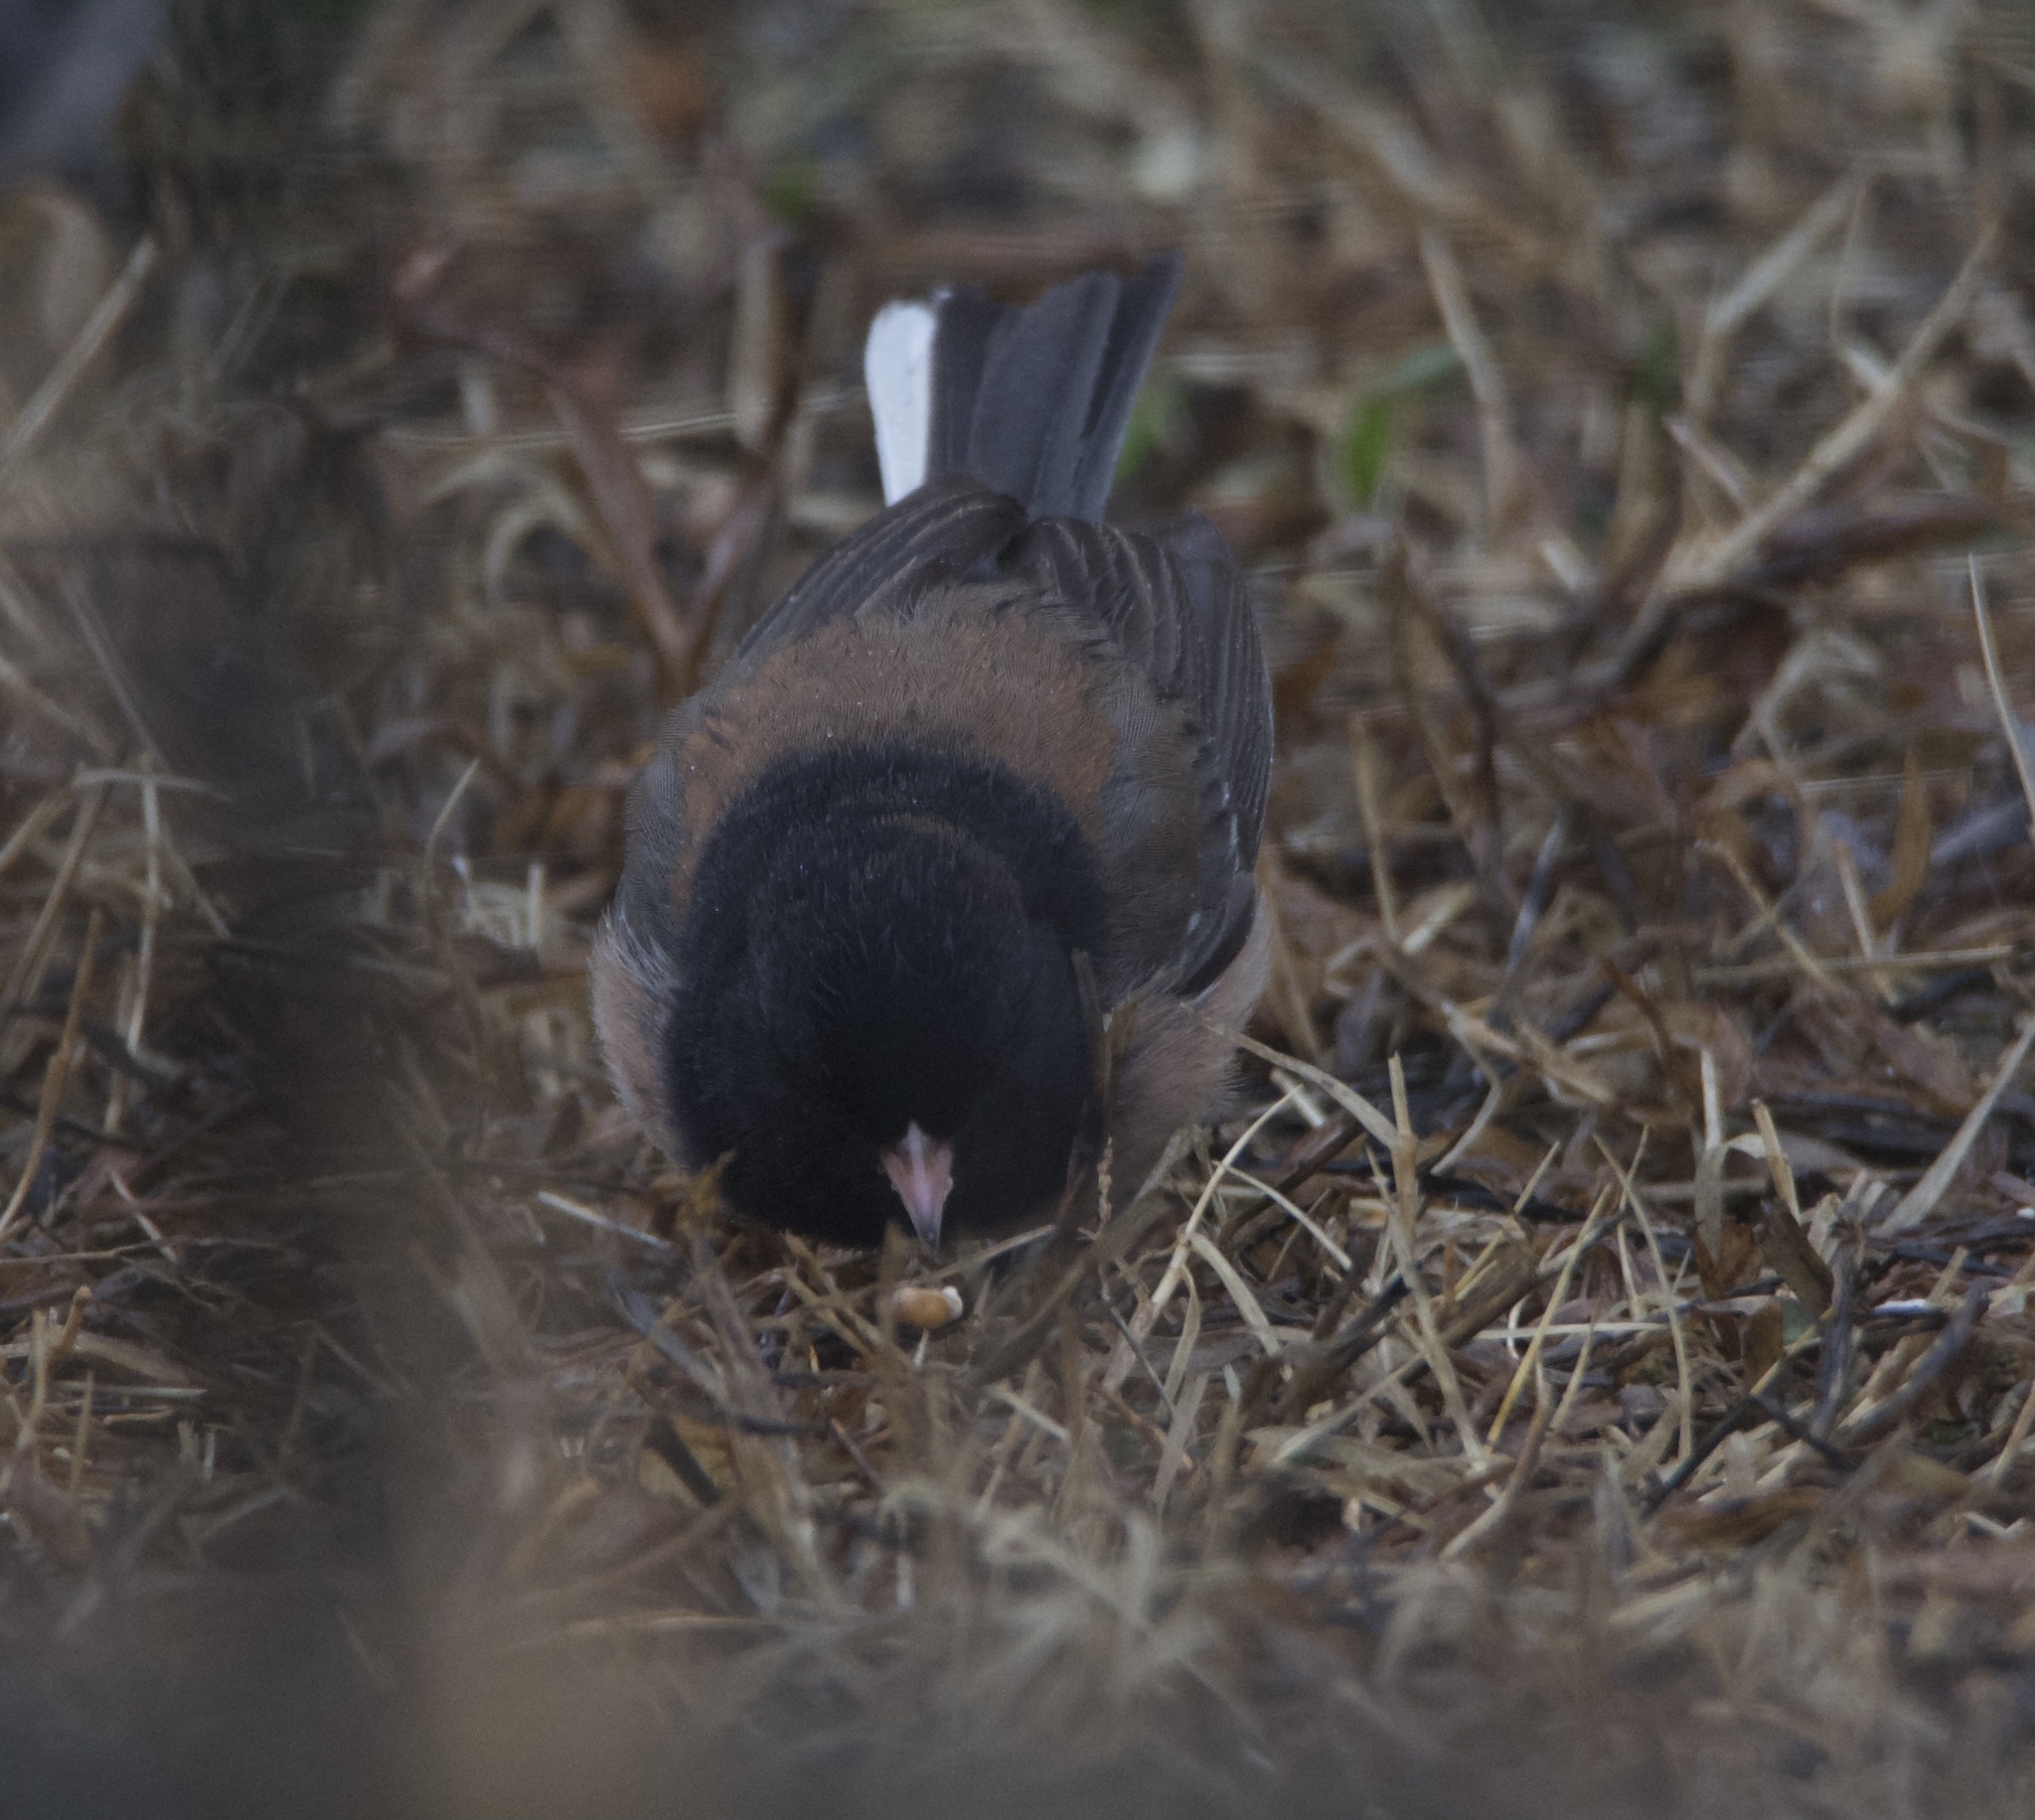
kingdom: Animalia
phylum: Chordata
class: Aves
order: Passeriformes
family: Passerellidae
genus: Junco
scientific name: Junco hyemalis
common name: Dark-eyed junco
